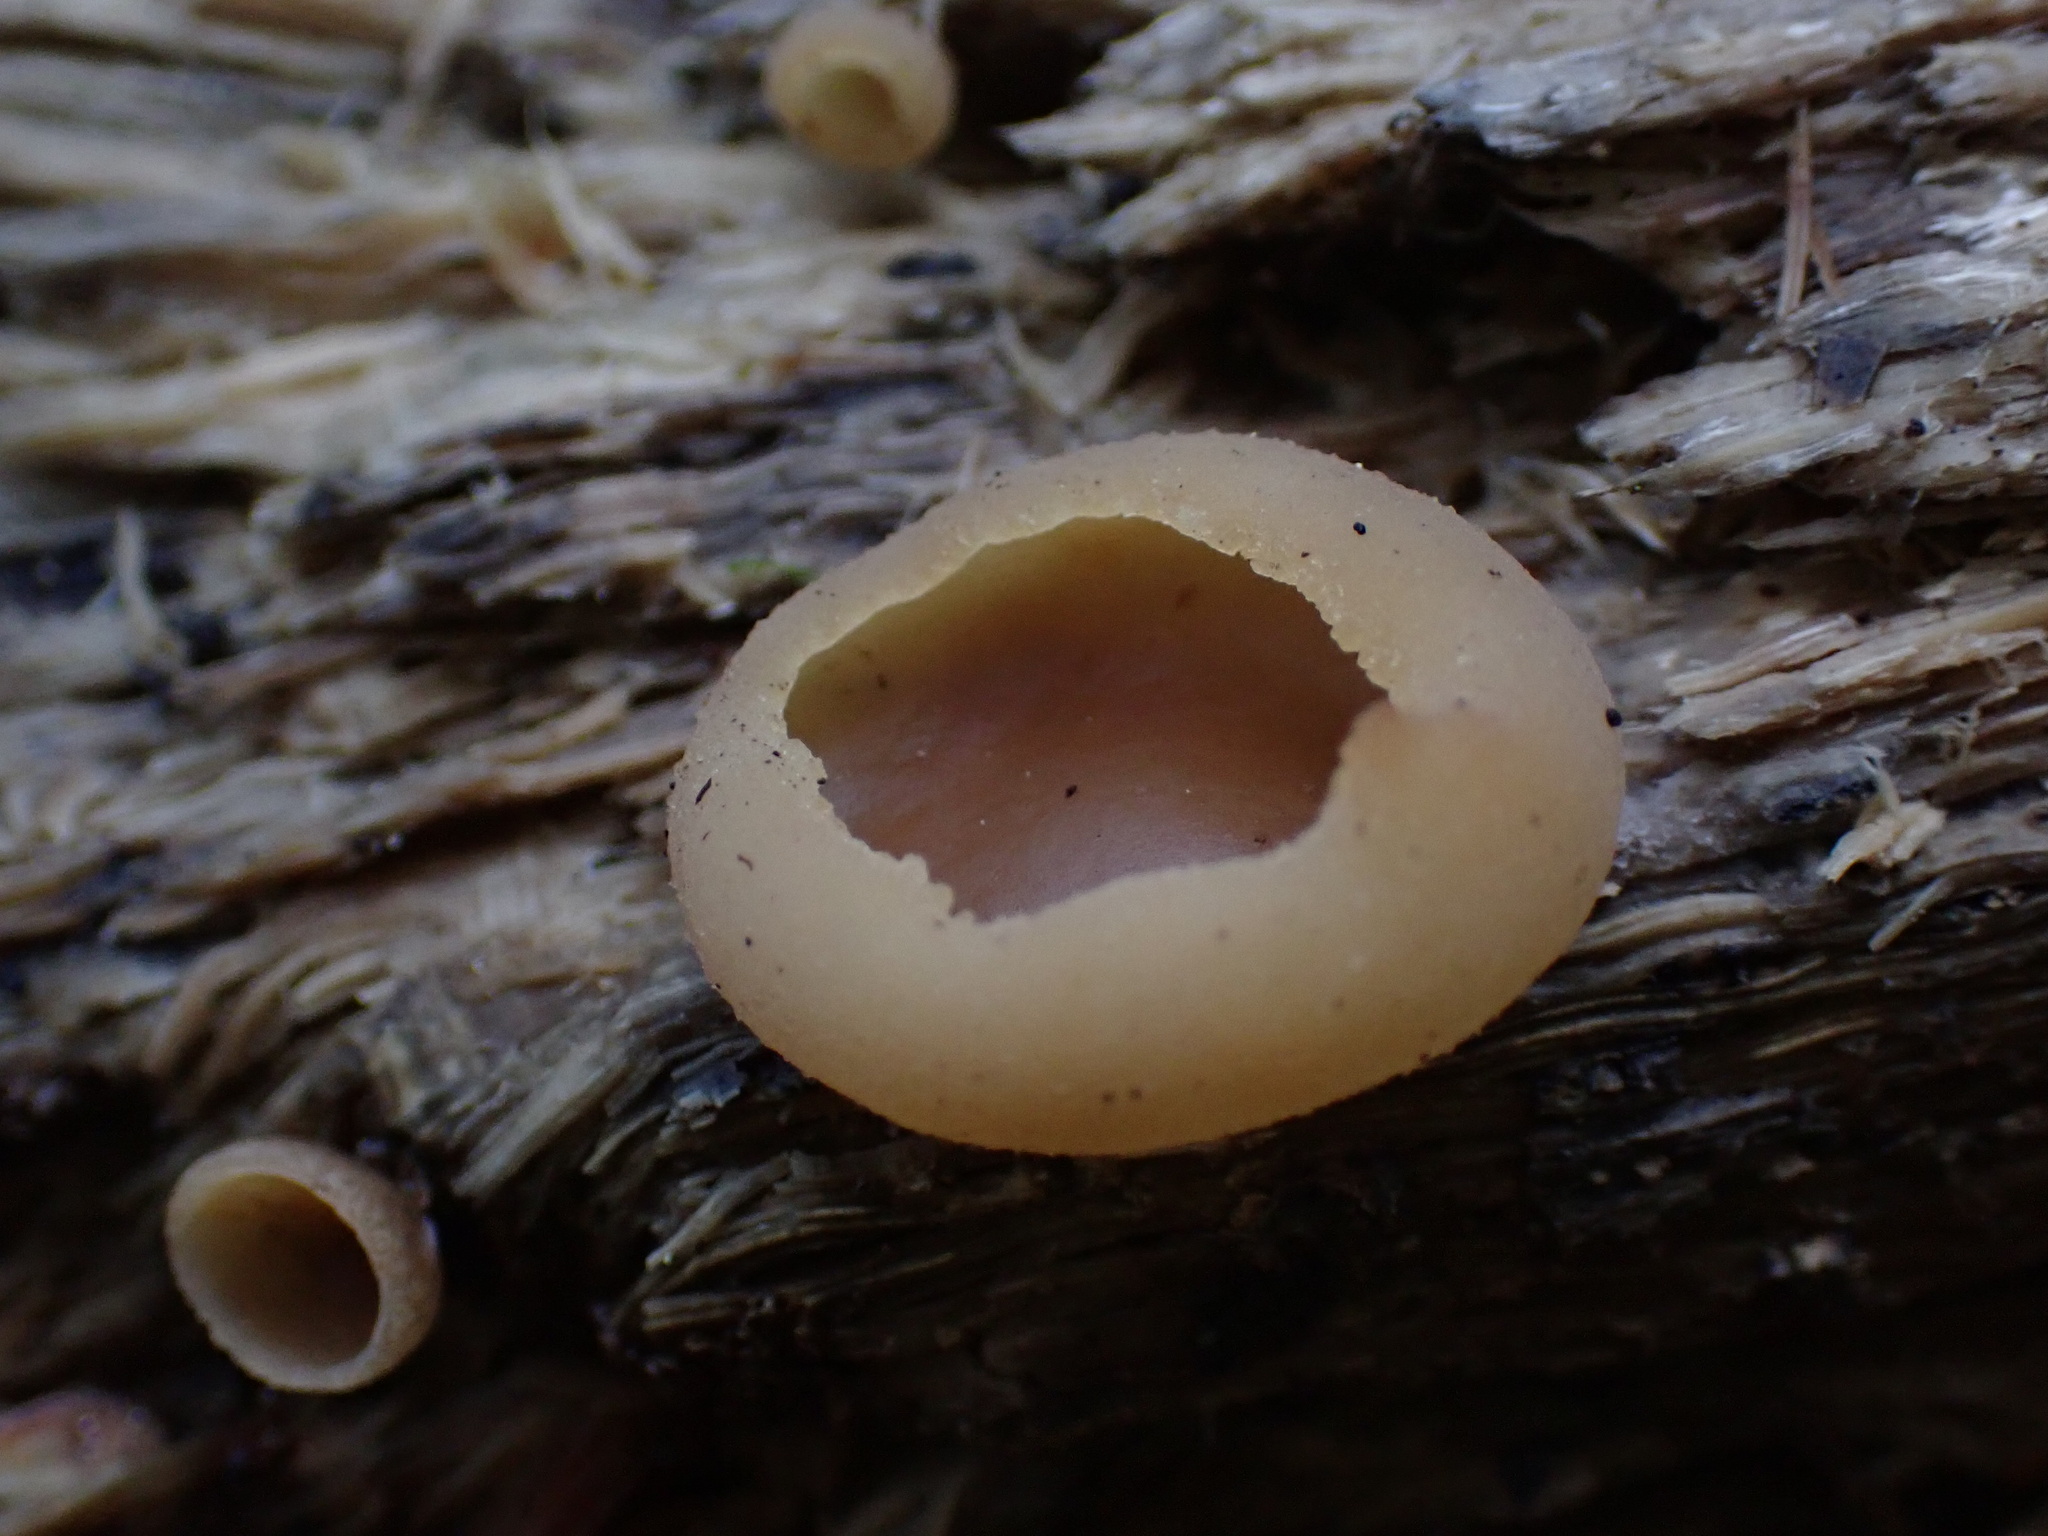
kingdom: Fungi
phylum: Ascomycota
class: Pezizomycetes
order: Pezizales
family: Pezizaceae
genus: Peziza
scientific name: Peziza
